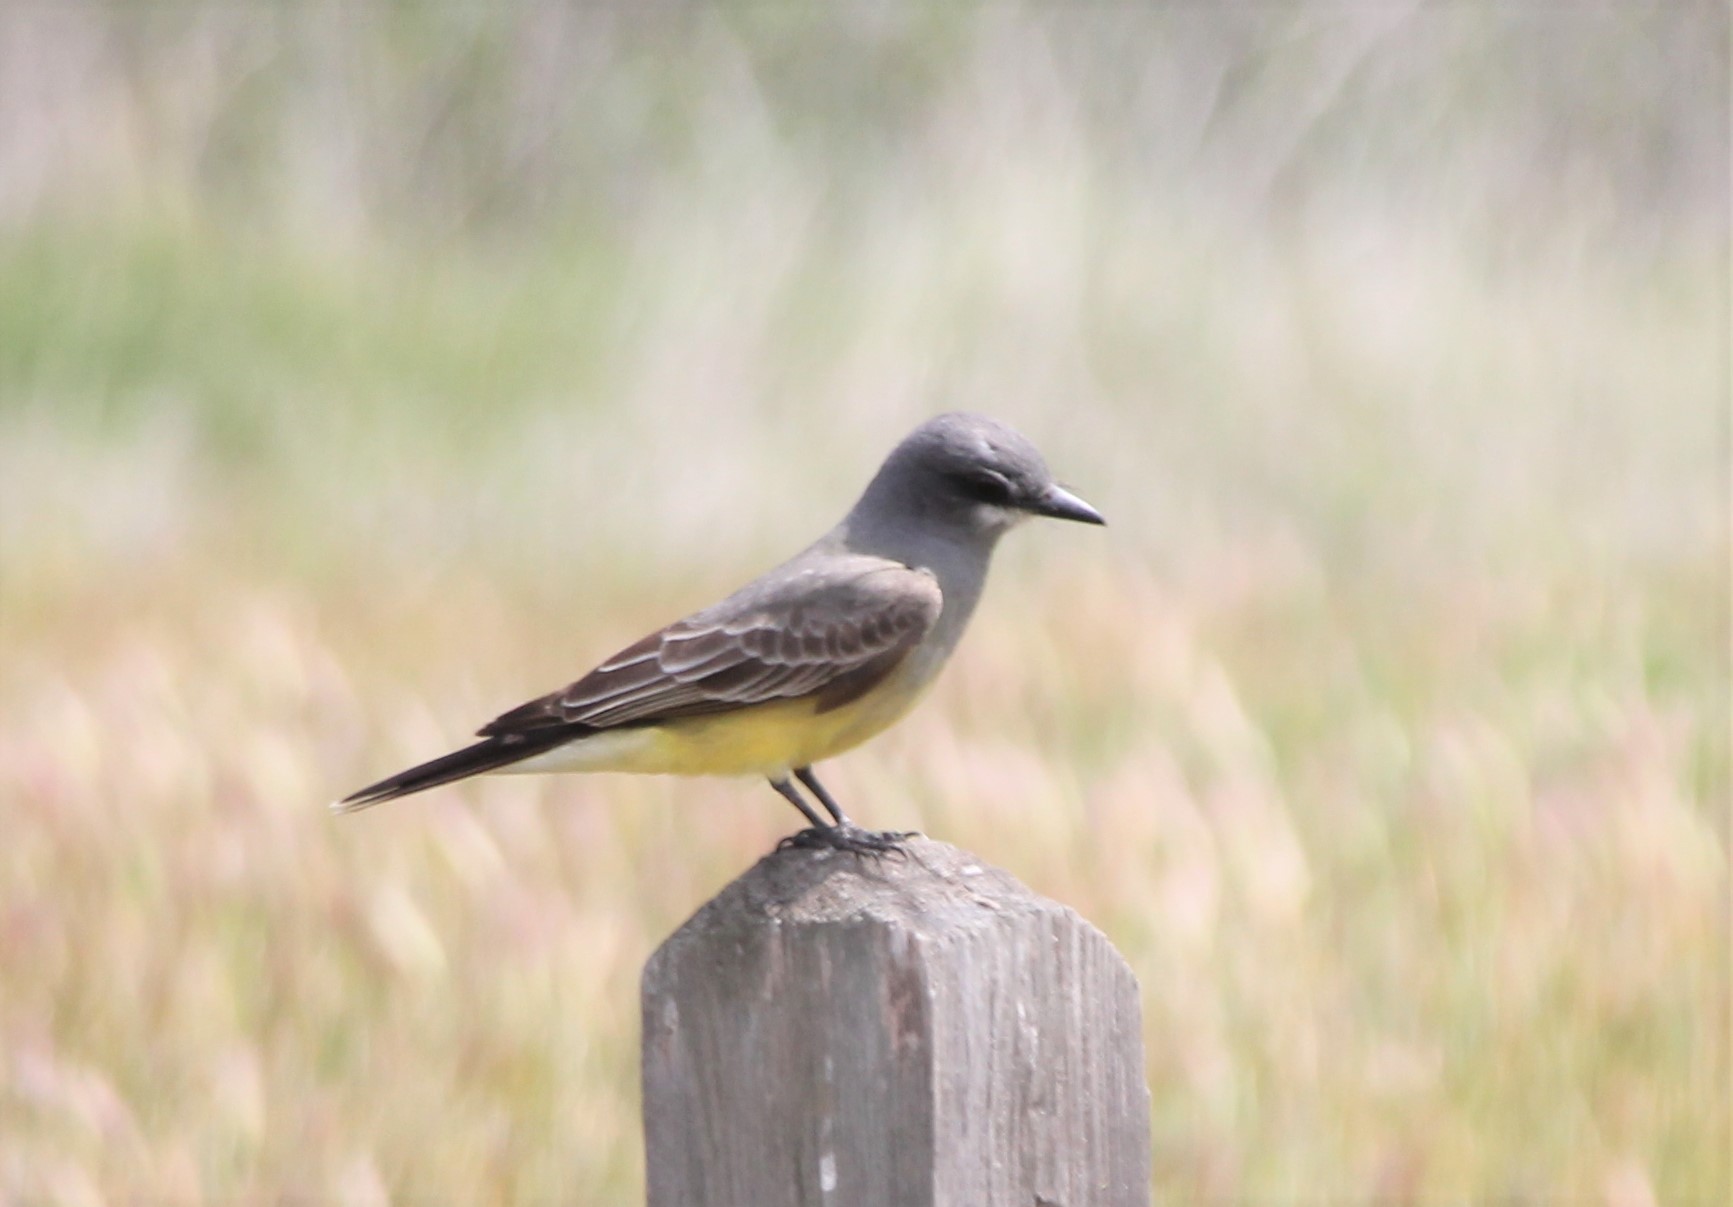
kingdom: Animalia
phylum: Chordata
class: Aves
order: Passeriformes
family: Tyrannidae
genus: Tyrannus
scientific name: Tyrannus vociferans
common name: Cassin's kingbird
